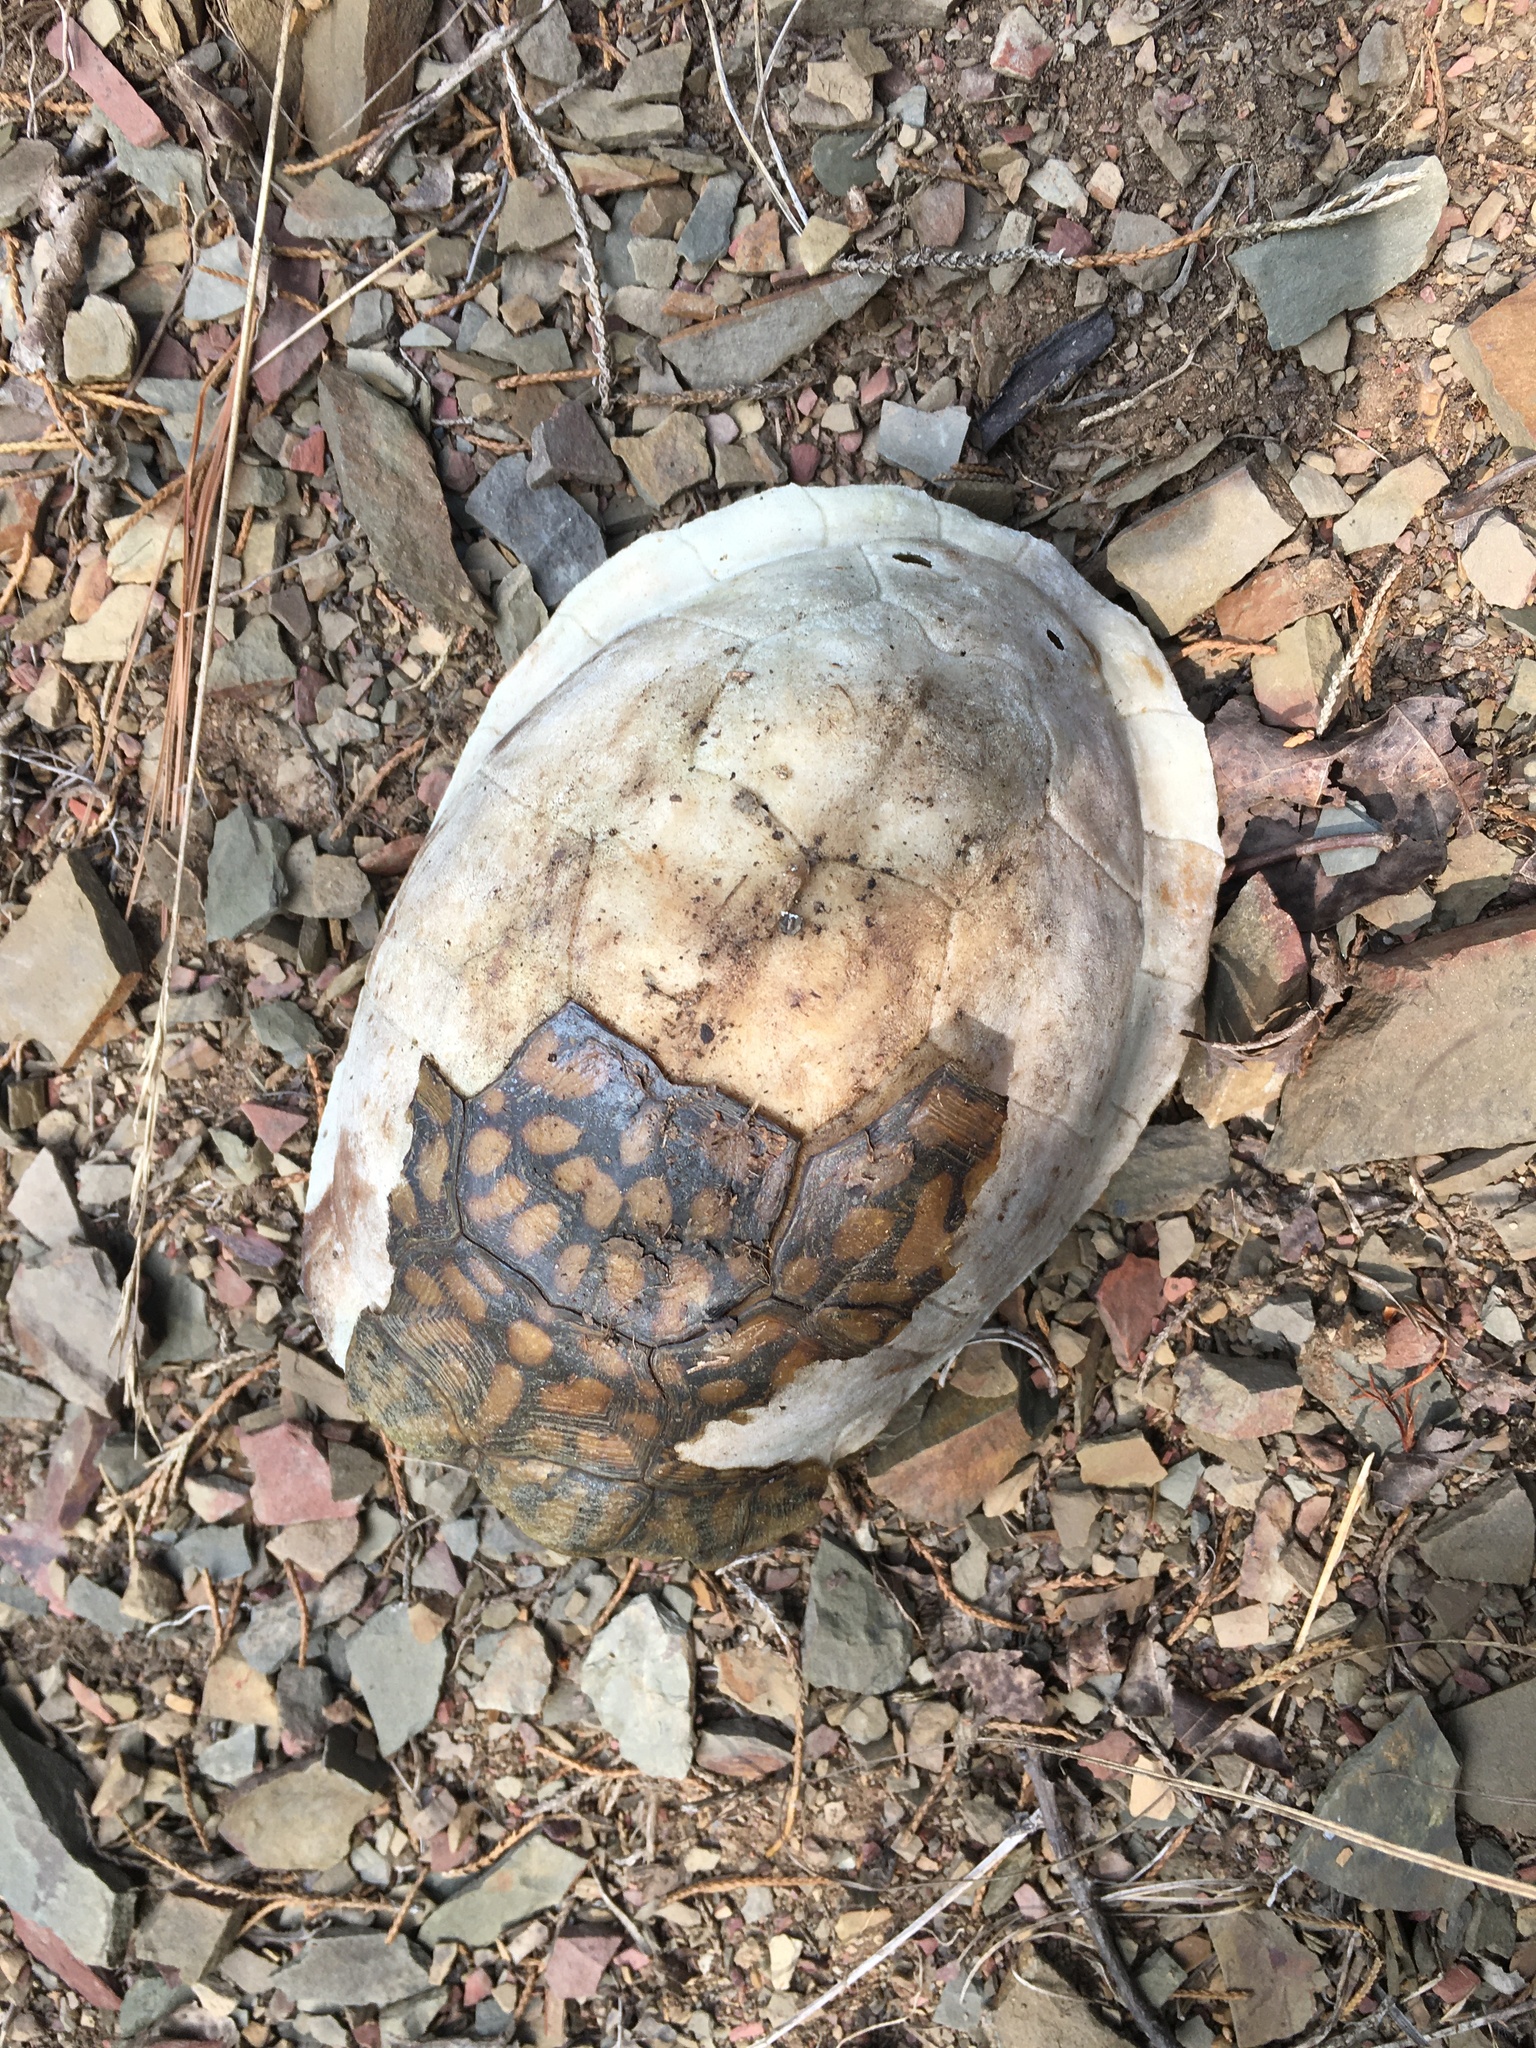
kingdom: Animalia
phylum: Chordata
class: Testudines
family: Emydidae
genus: Terrapene
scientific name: Terrapene carolina
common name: Common box turtle
